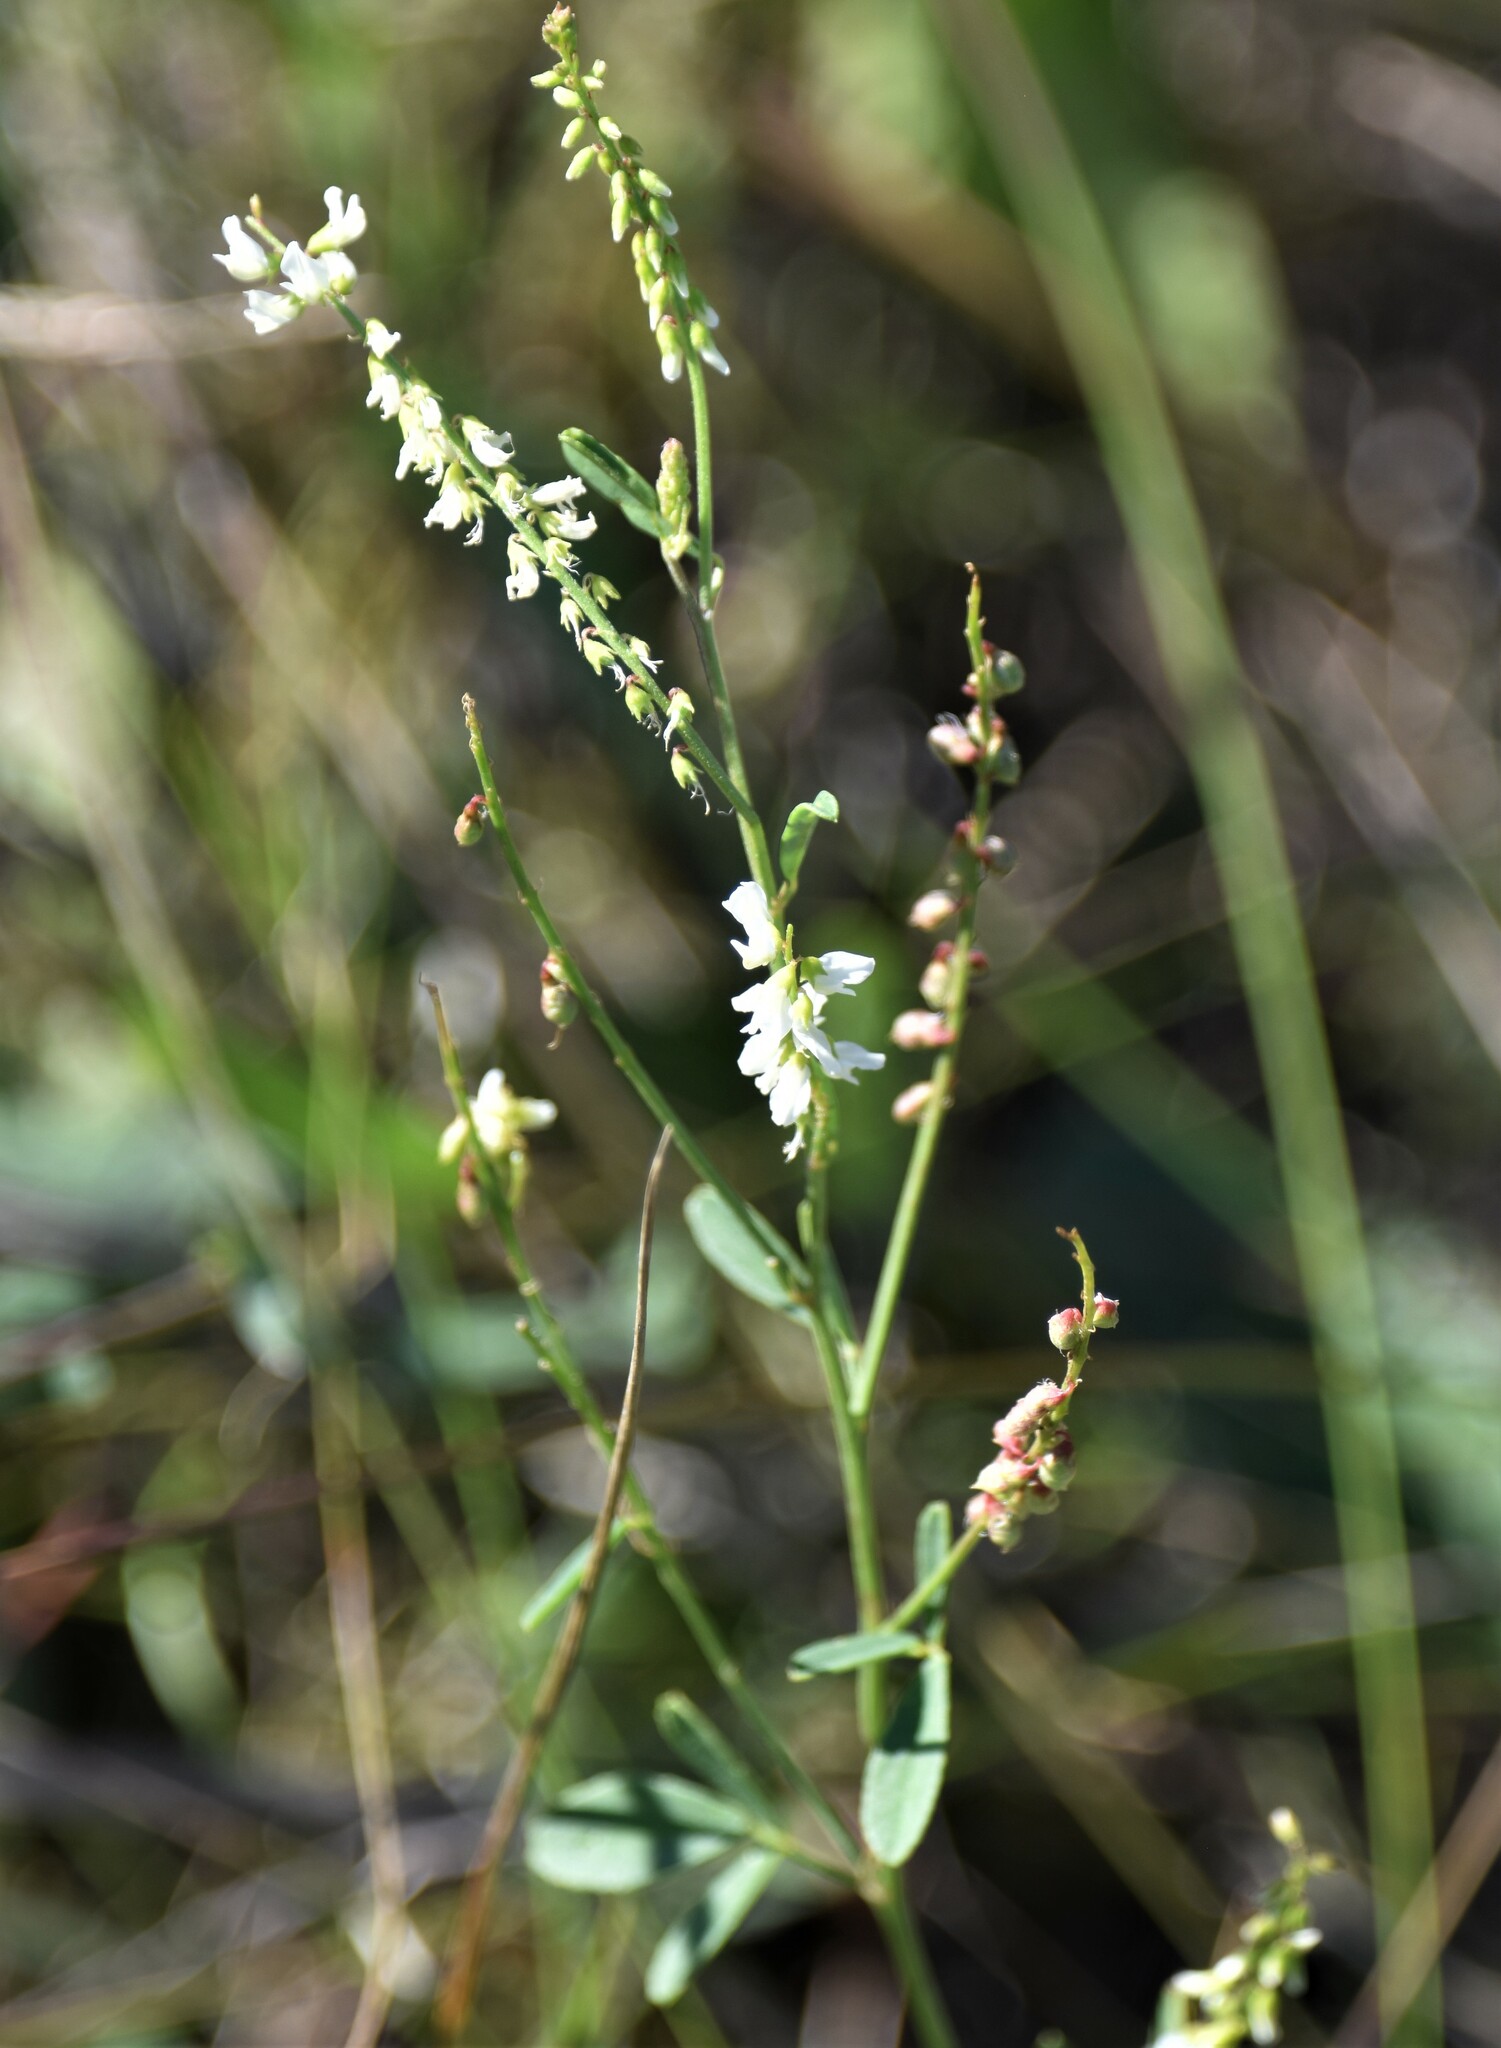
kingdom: Plantae
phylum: Tracheophyta
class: Magnoliopsida
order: Fabales
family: Fabaceae
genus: Melilotus
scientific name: Melilotus albus
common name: White melilot
